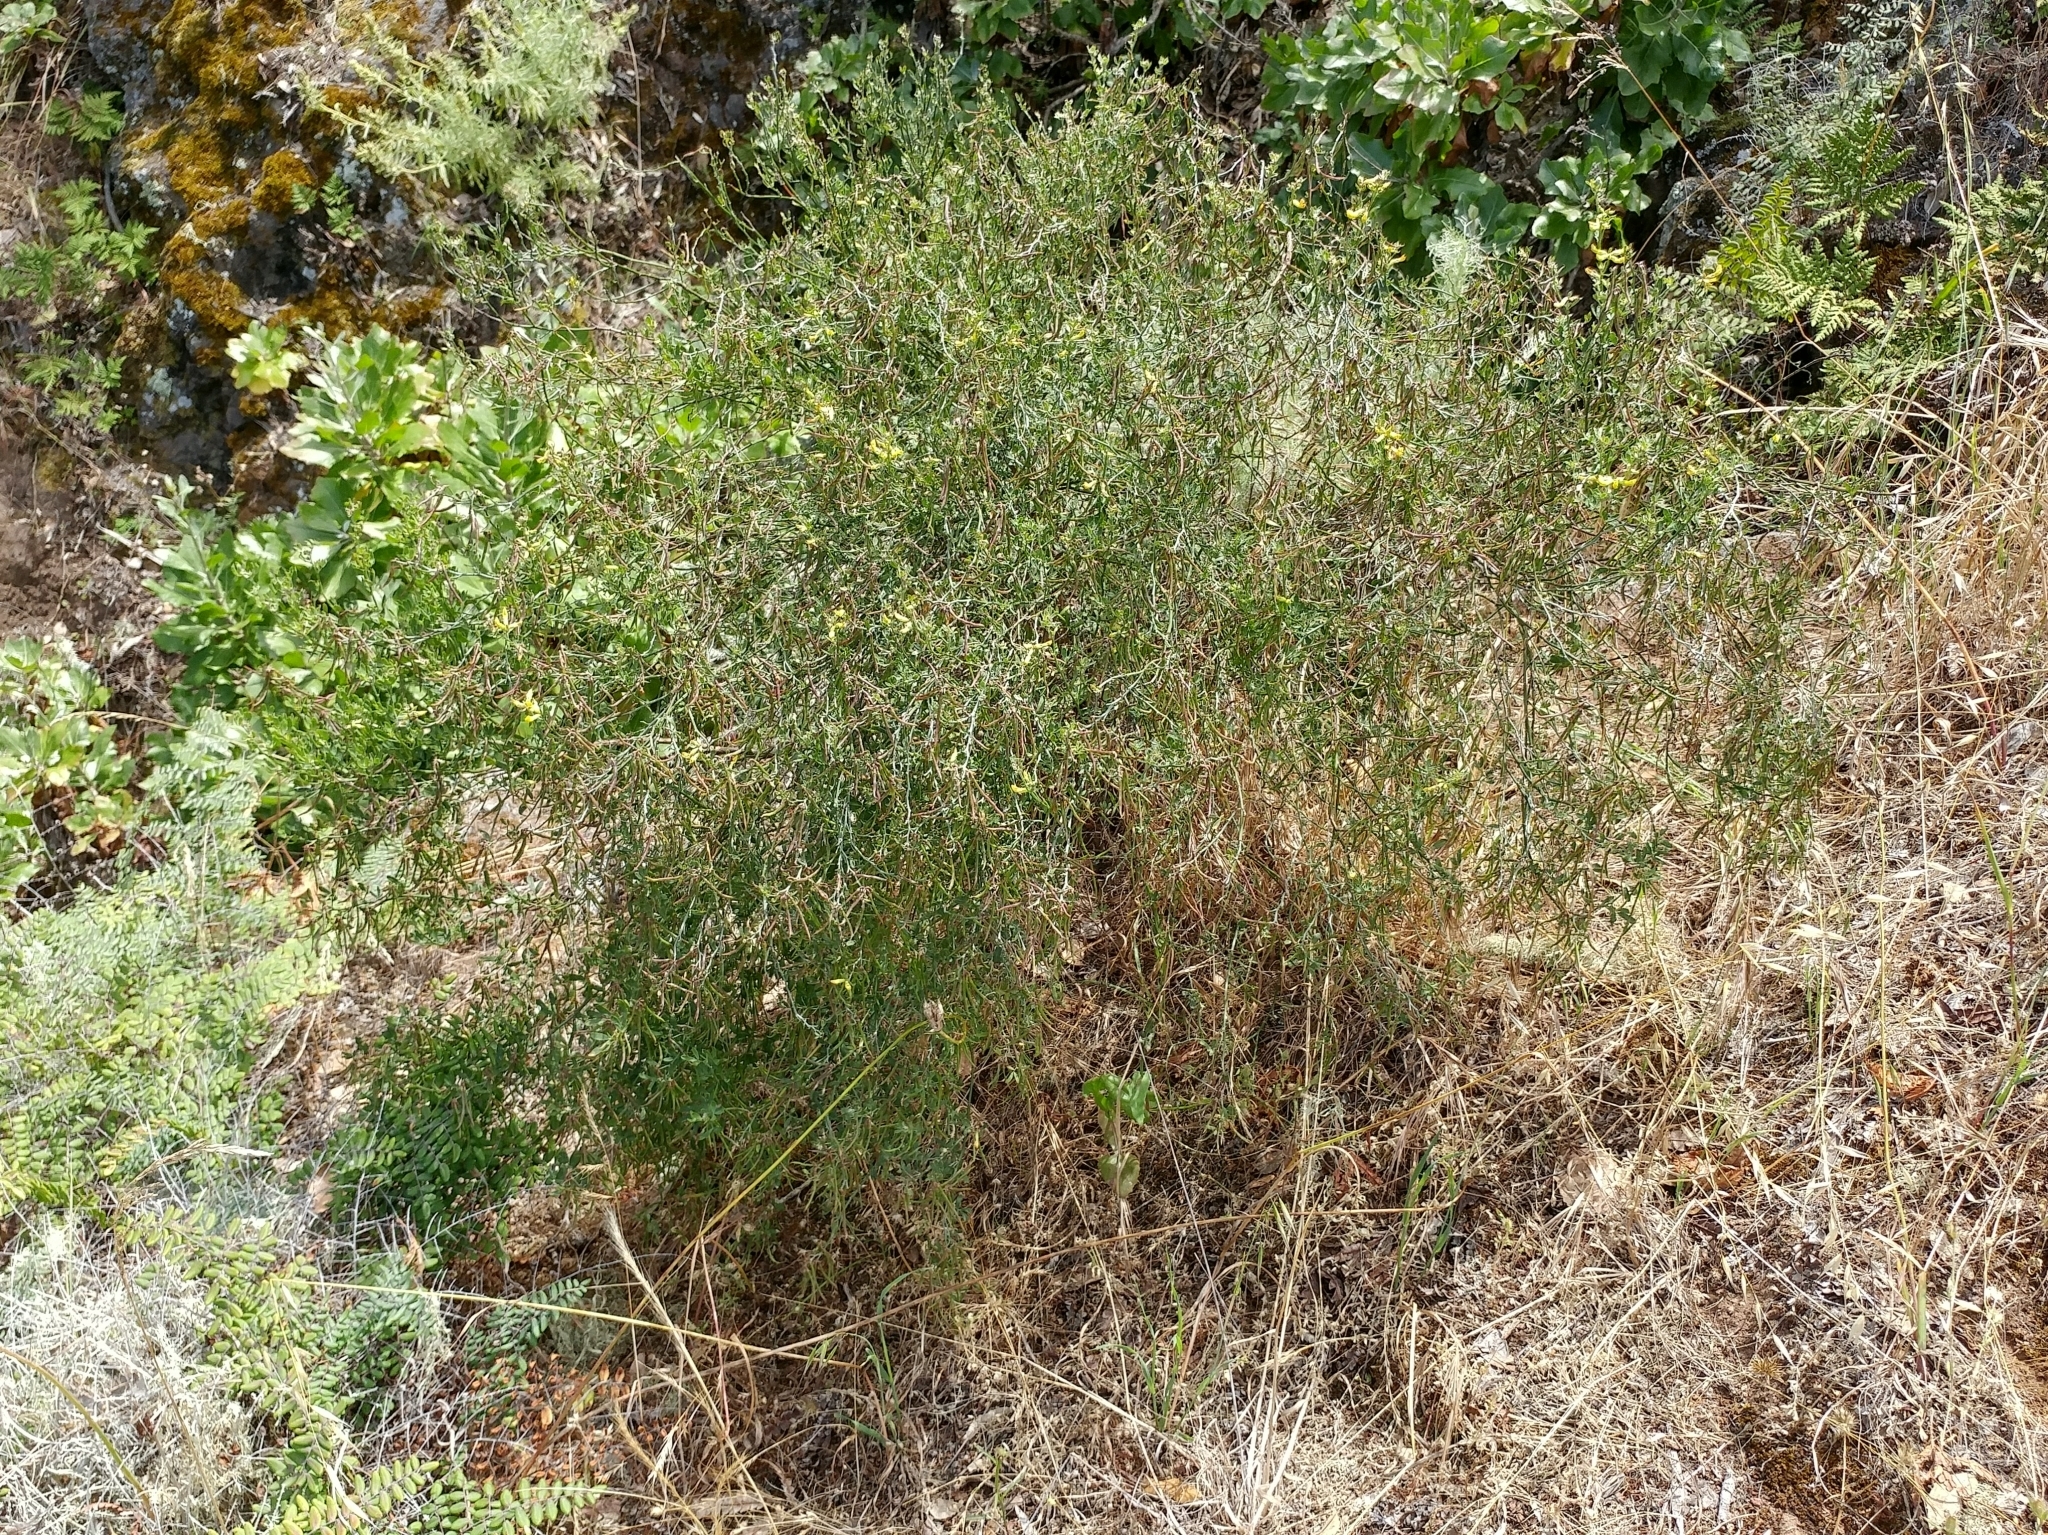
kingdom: Plantae
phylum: Tracheophyta
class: Magnoliopsida
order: Fabales
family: Fabaceae
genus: Acmispon
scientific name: Acmispon dendroideus
